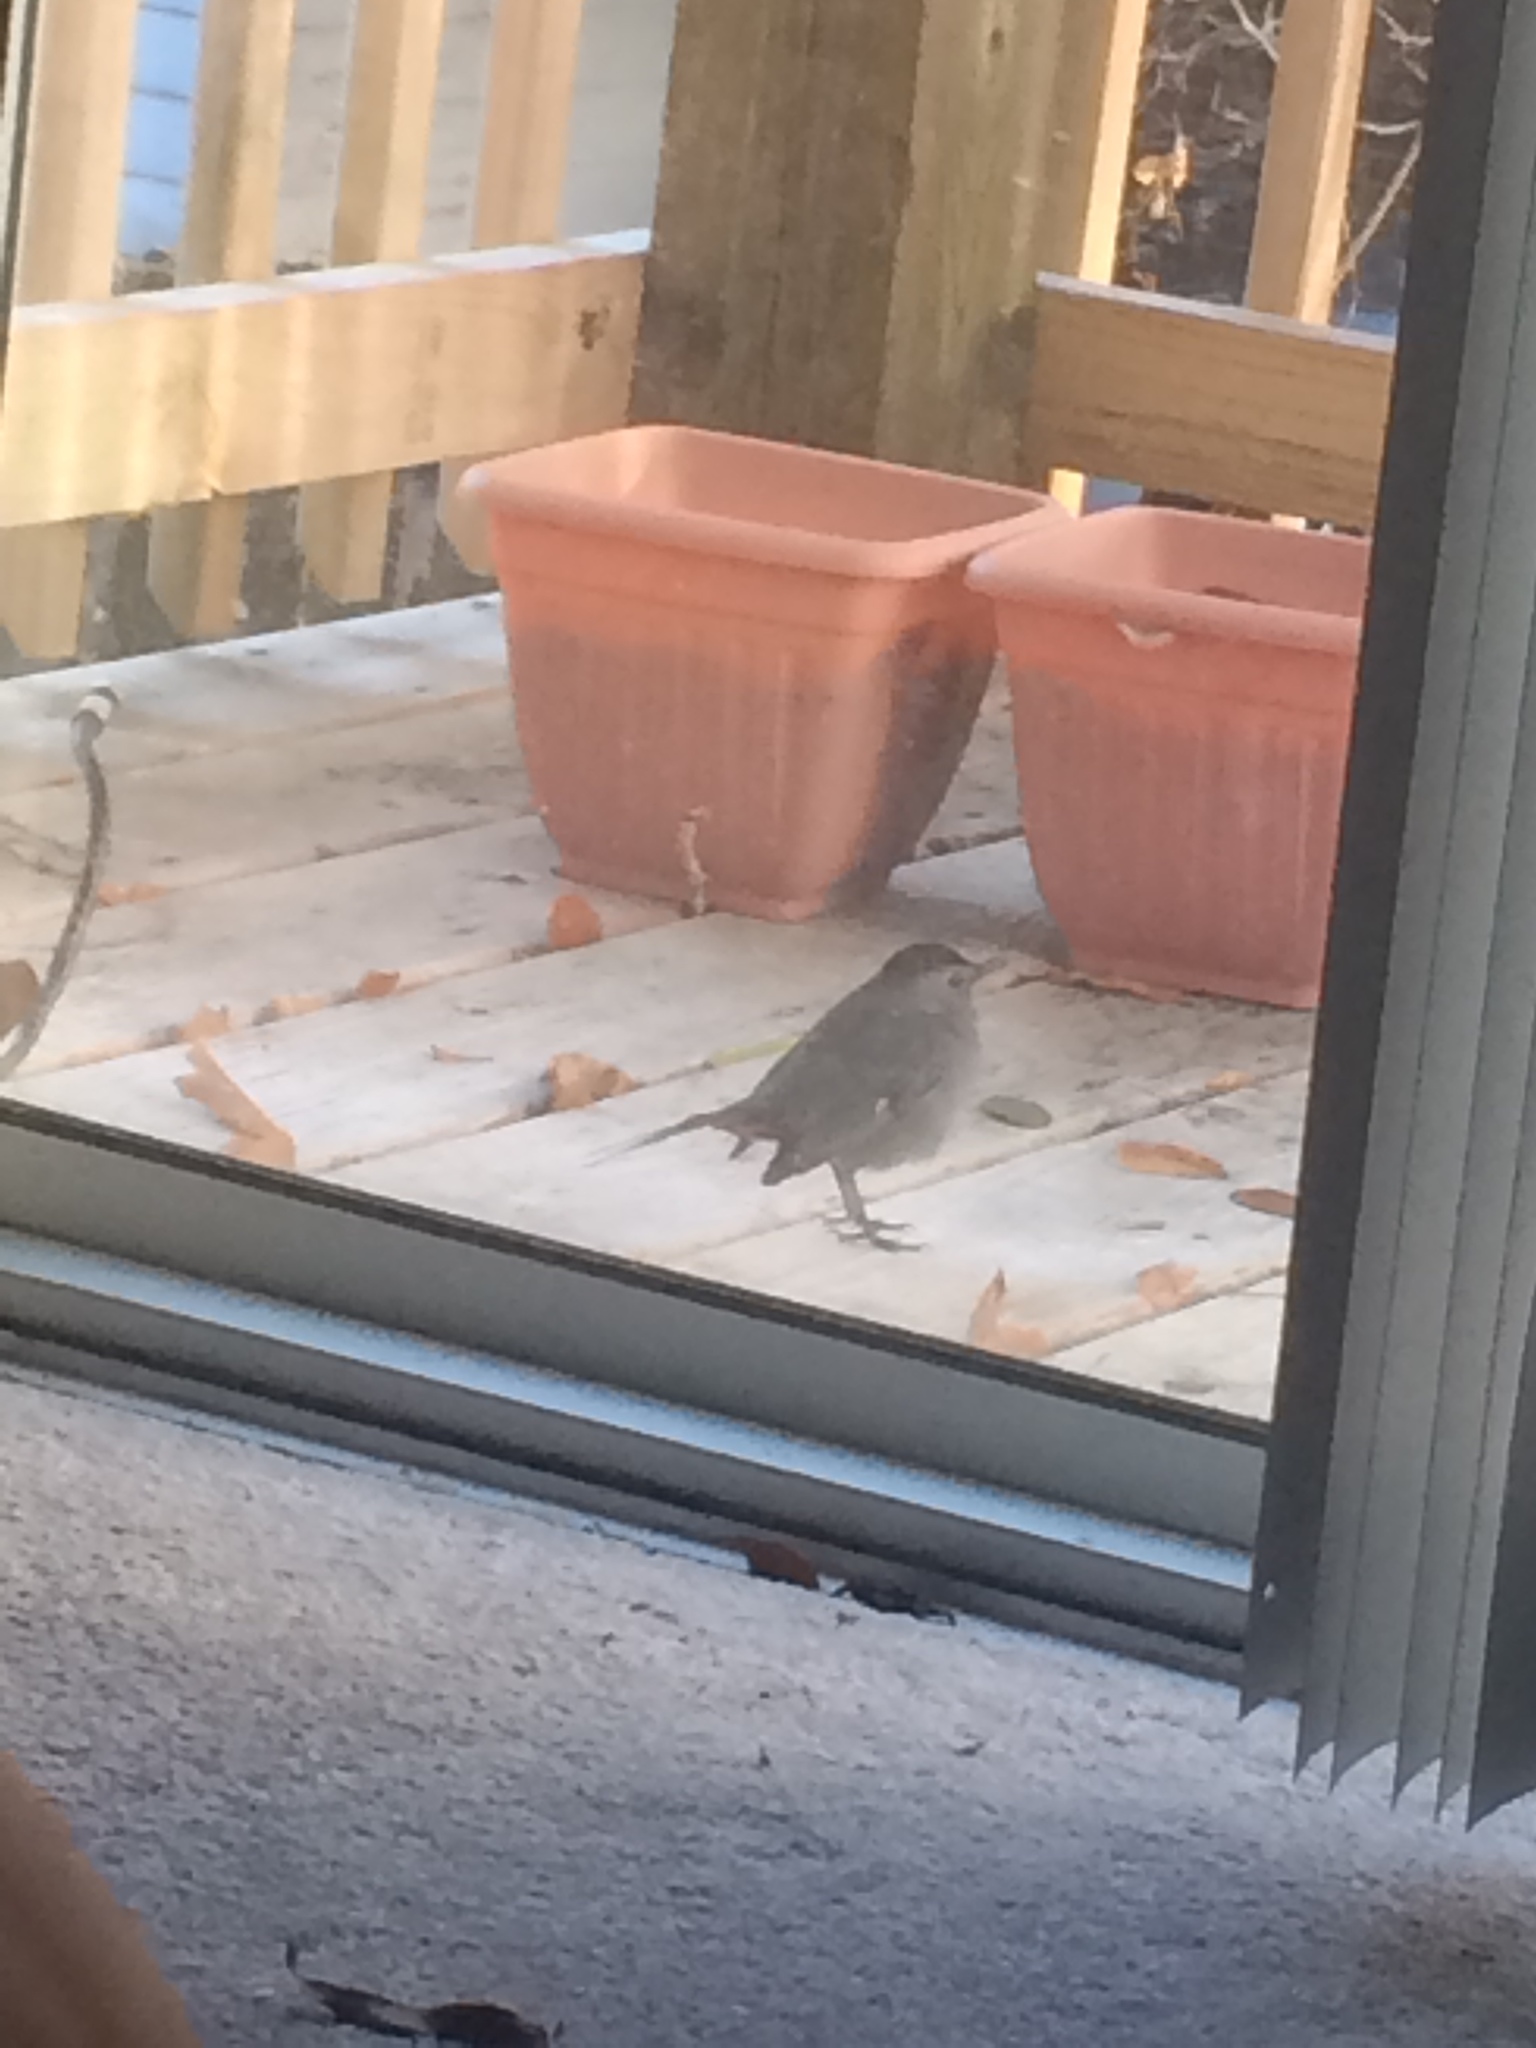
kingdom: Animalia
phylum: Chordata
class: Aves
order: Passeriformes
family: Mimidae
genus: Dumetella
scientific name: Dumetella carolinensis
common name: Gray catbird
